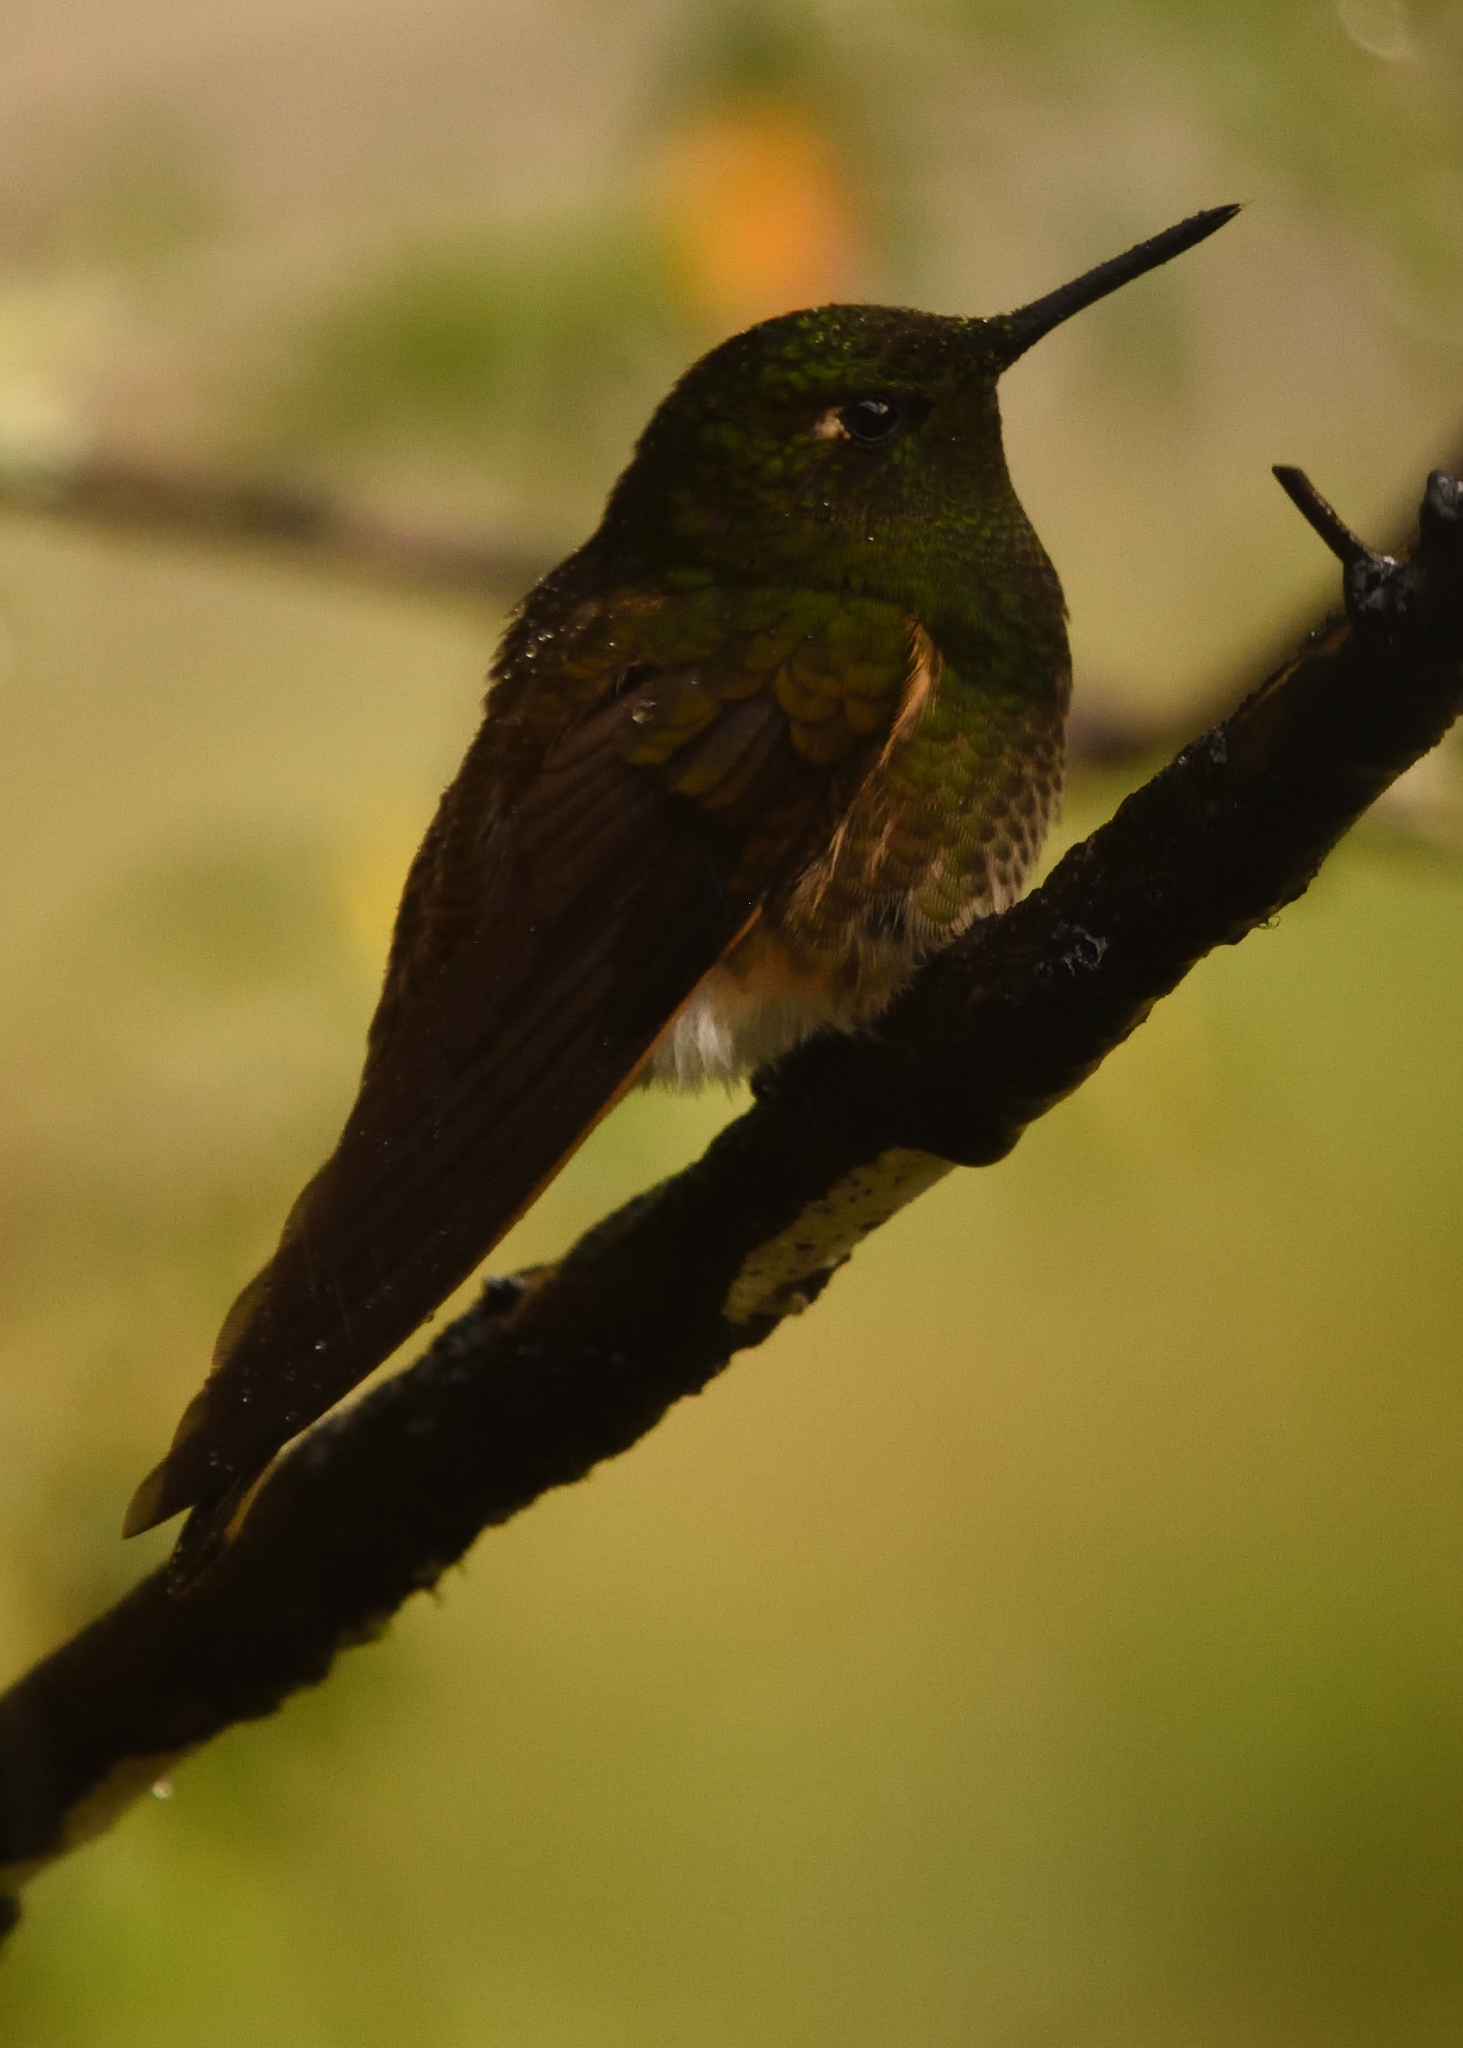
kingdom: Animalia
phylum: Chordata
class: Aves
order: Apodiformes
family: Trochilidae
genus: Boissonneaua
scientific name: Boissonneaua flavescens
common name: Buff-tailed coronet
